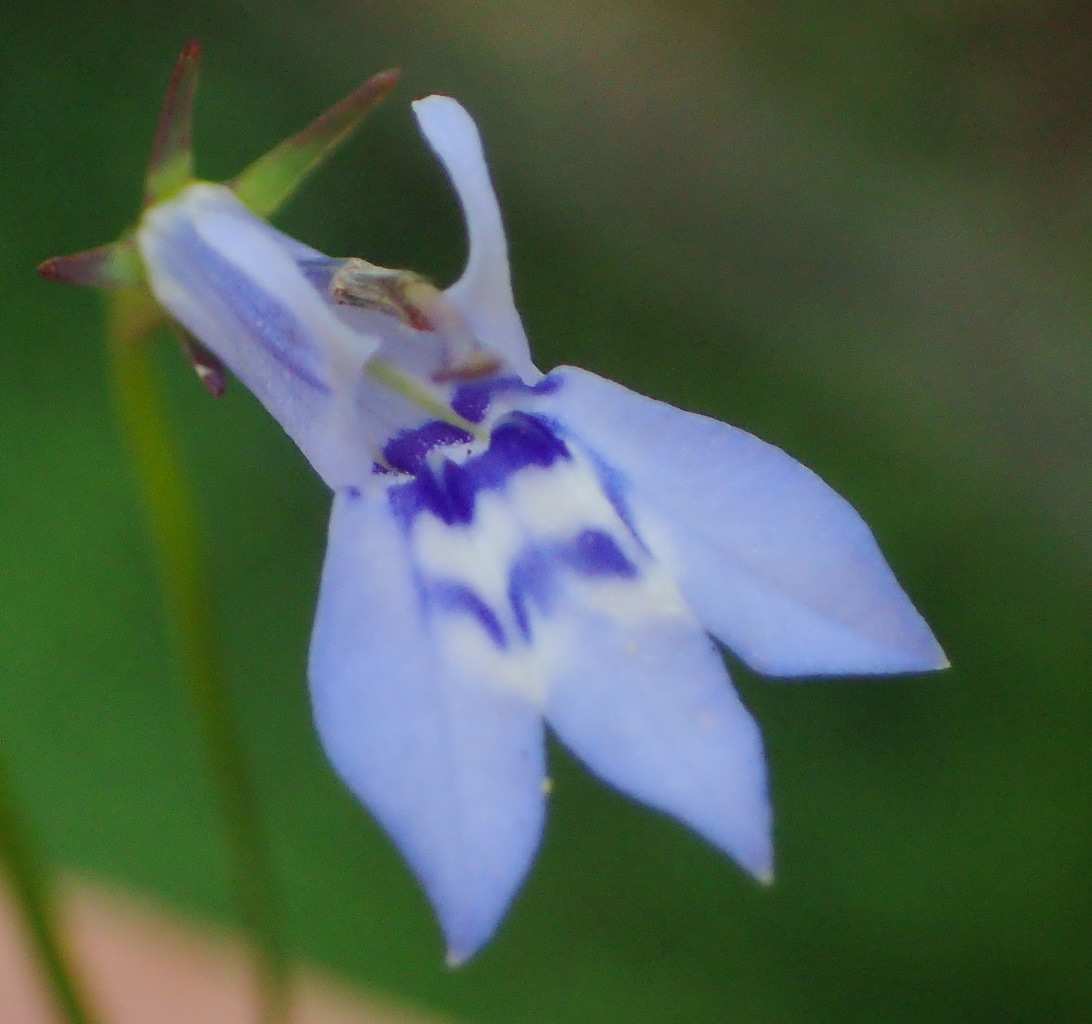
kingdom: Plantae
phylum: Tracheophyta
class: Magnoliopsida
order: Asterales
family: Campanulaceae
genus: Lobelia
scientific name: Lobelia flaccida
